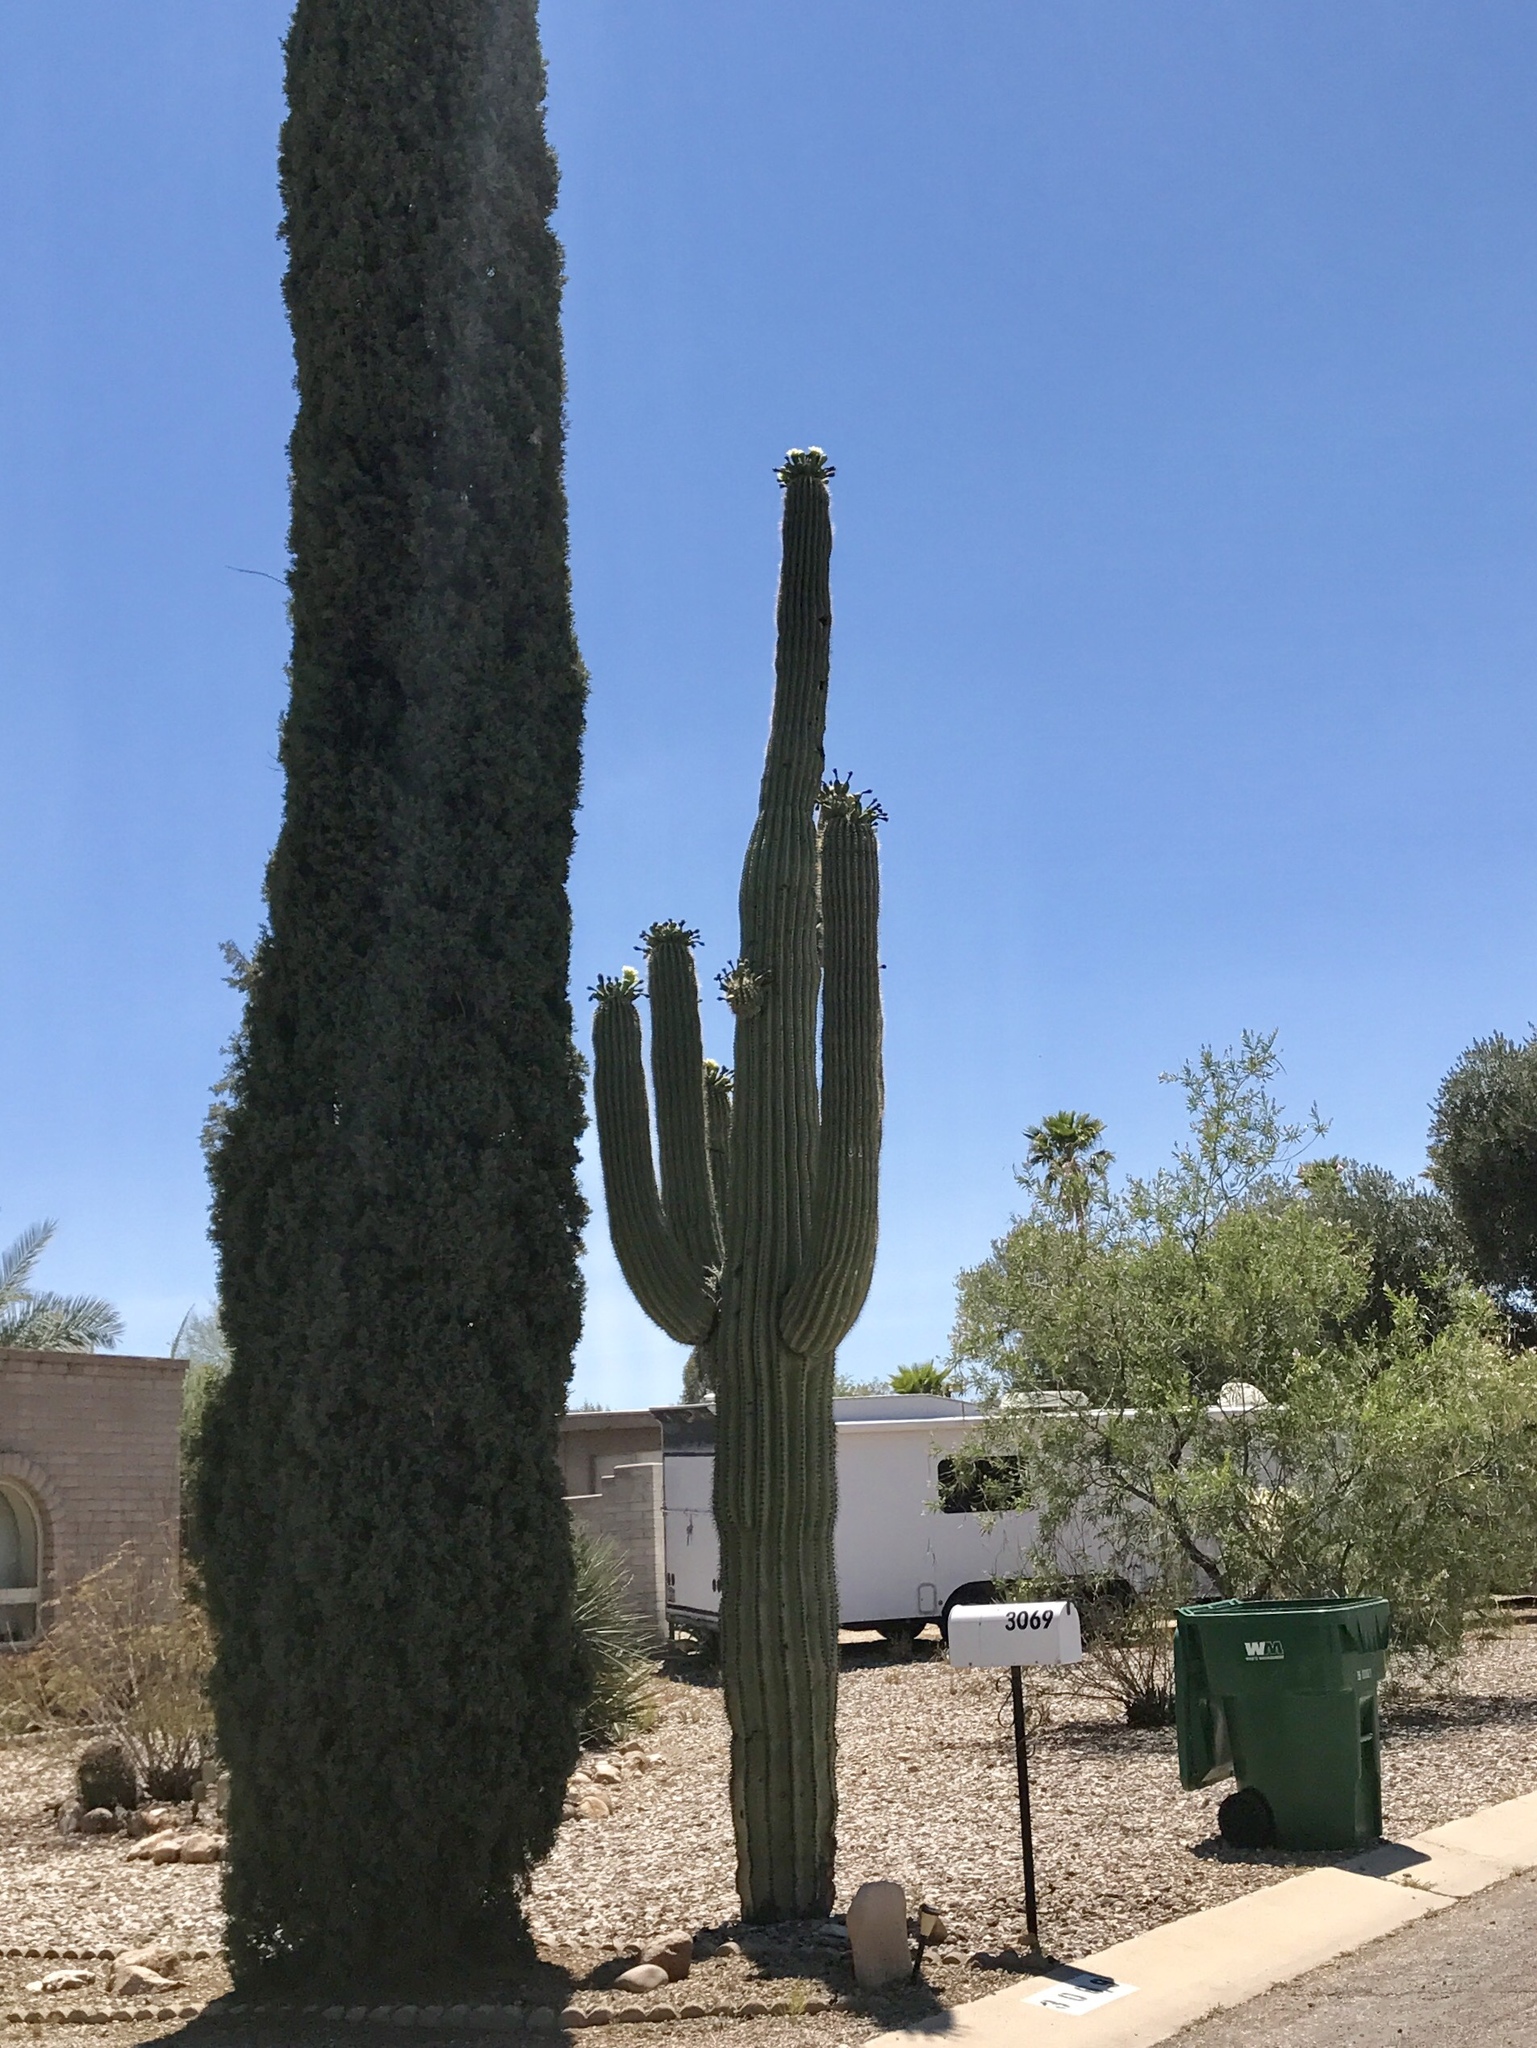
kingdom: Plantae
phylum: Tracheophyta
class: Magnoliopsida
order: Caryophyllales
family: Cactaceae
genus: Carnegiea
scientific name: Carnegiea gigantea
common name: Saguaro
